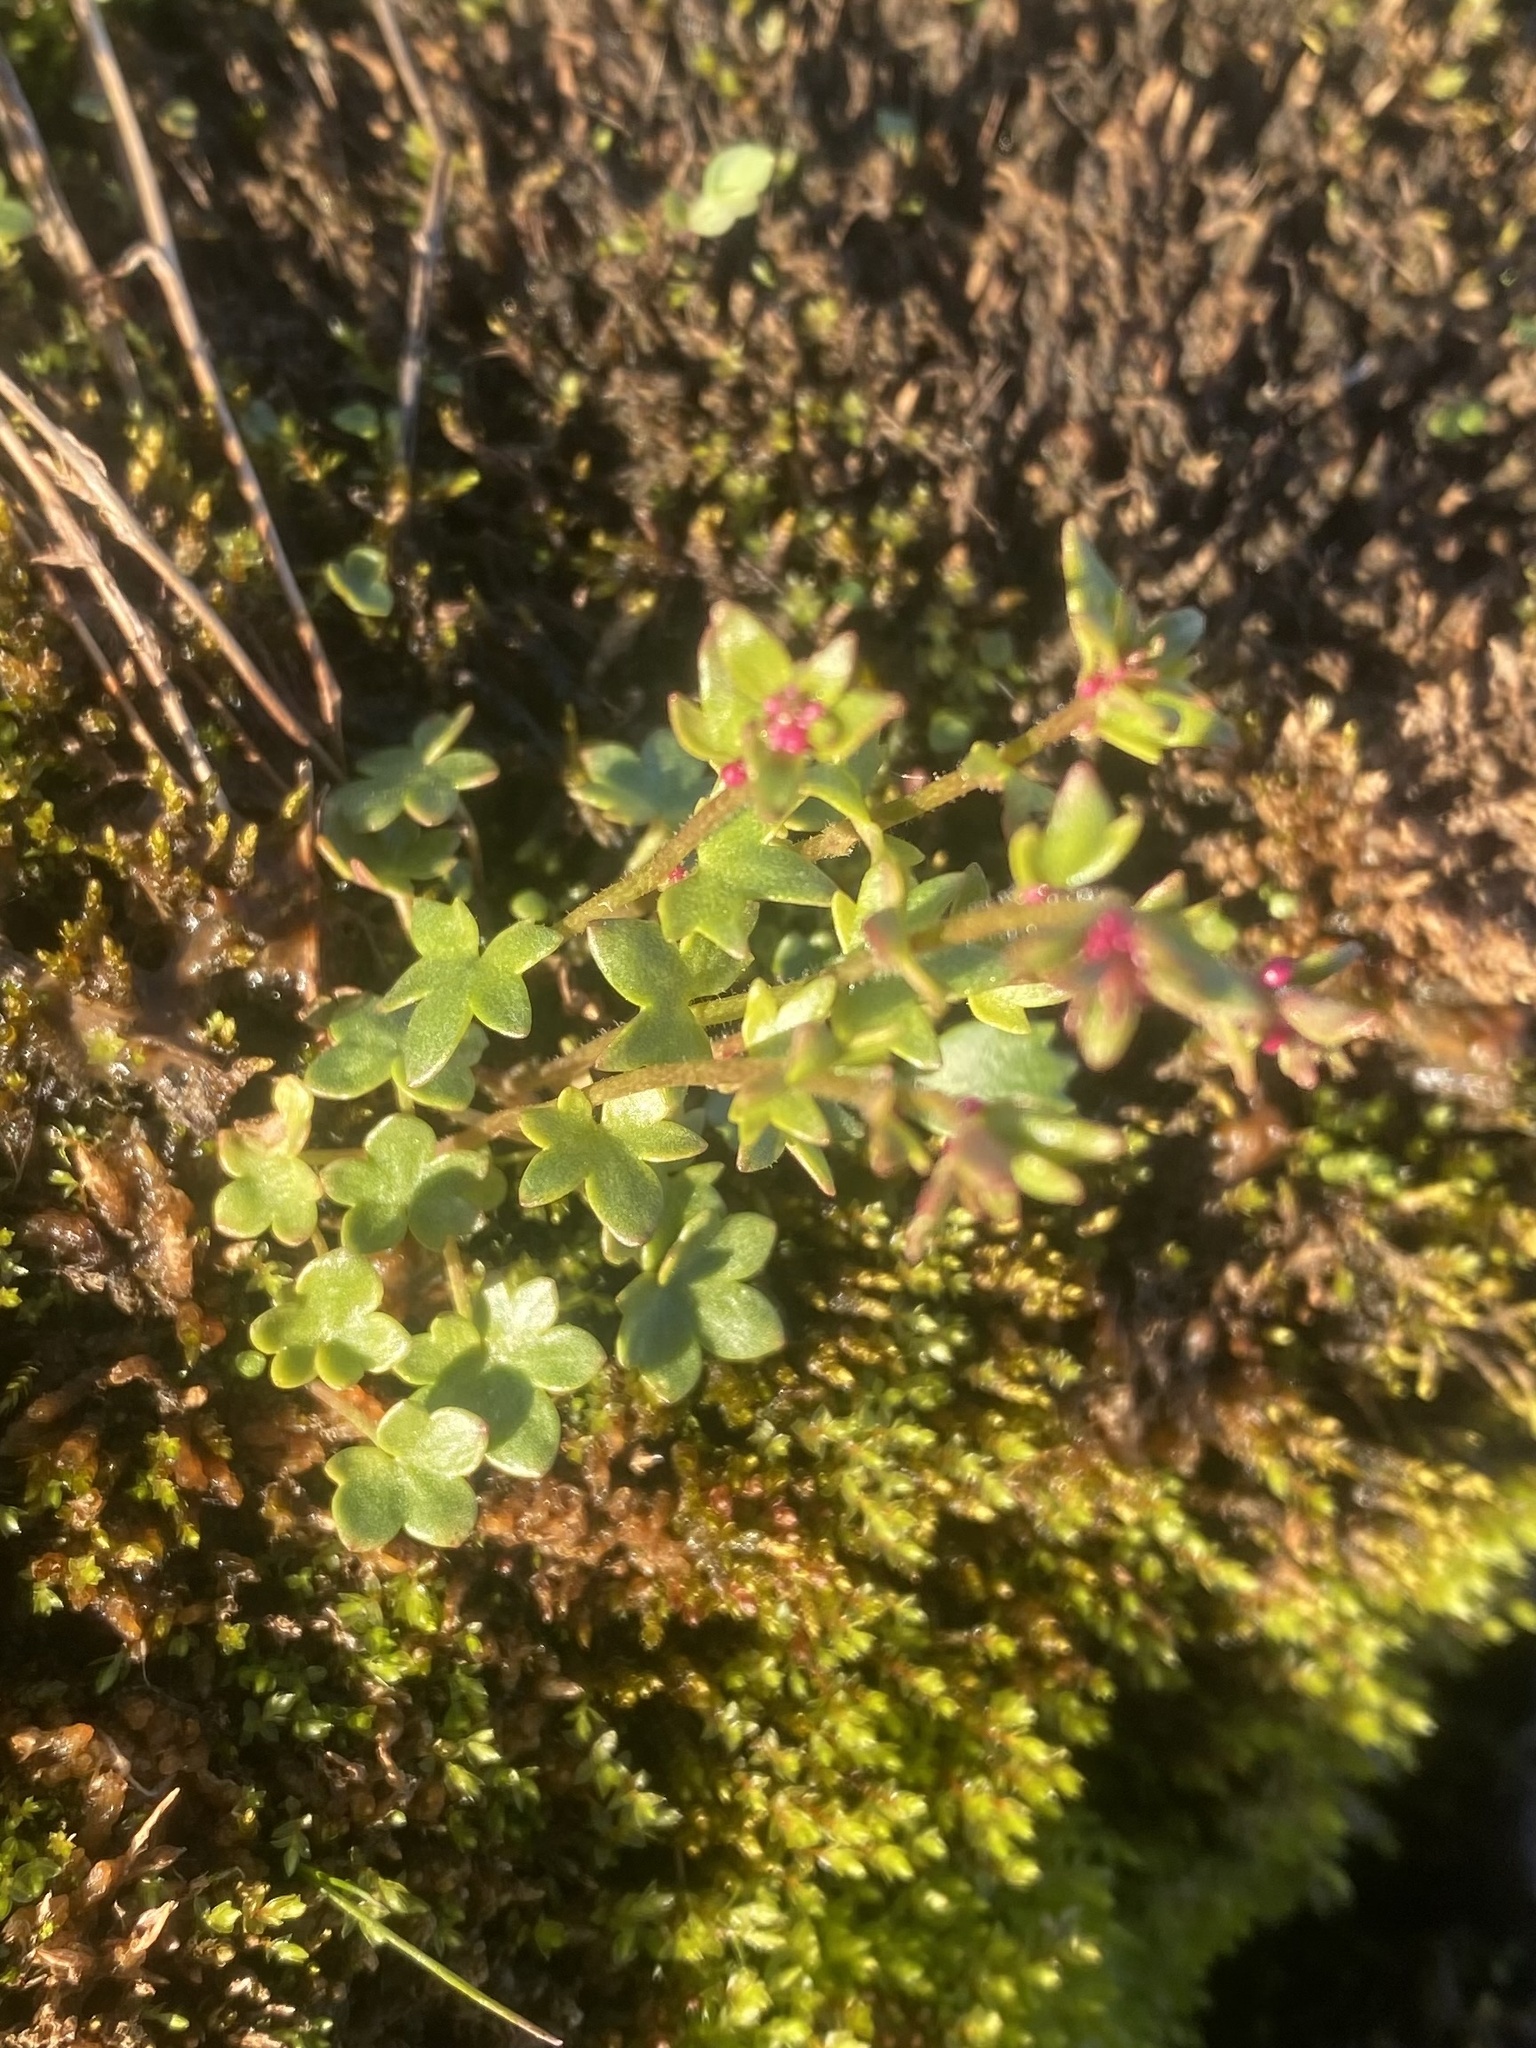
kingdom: Plantae
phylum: Tracheophyta
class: Magnoliopsida
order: Saxifragales
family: Saxifragaceae
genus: Saxifraga
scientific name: Saxifraga cernua
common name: Drooping saxifrage
